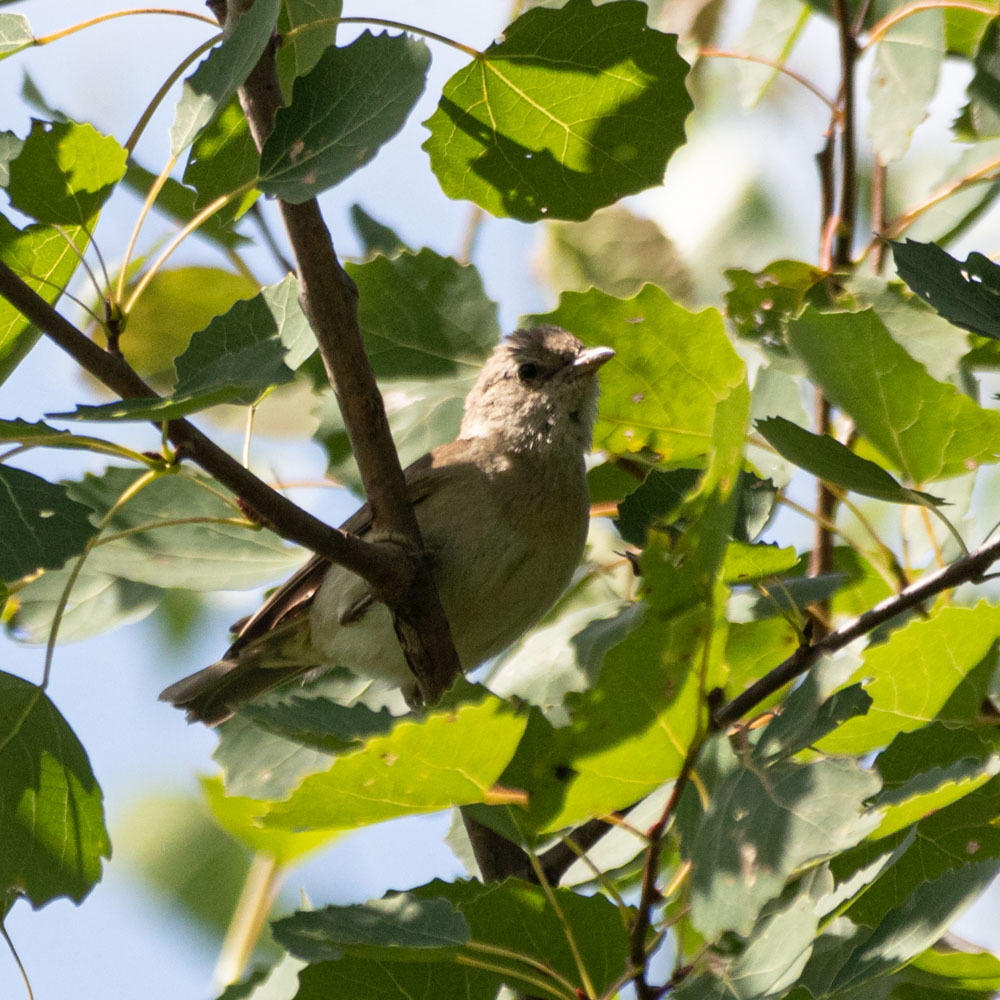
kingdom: Animalia
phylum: Chordata
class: Aves
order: Passeriformes
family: Sylviidae
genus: Sylvia
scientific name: Sylvia borin
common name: Garden warbler
